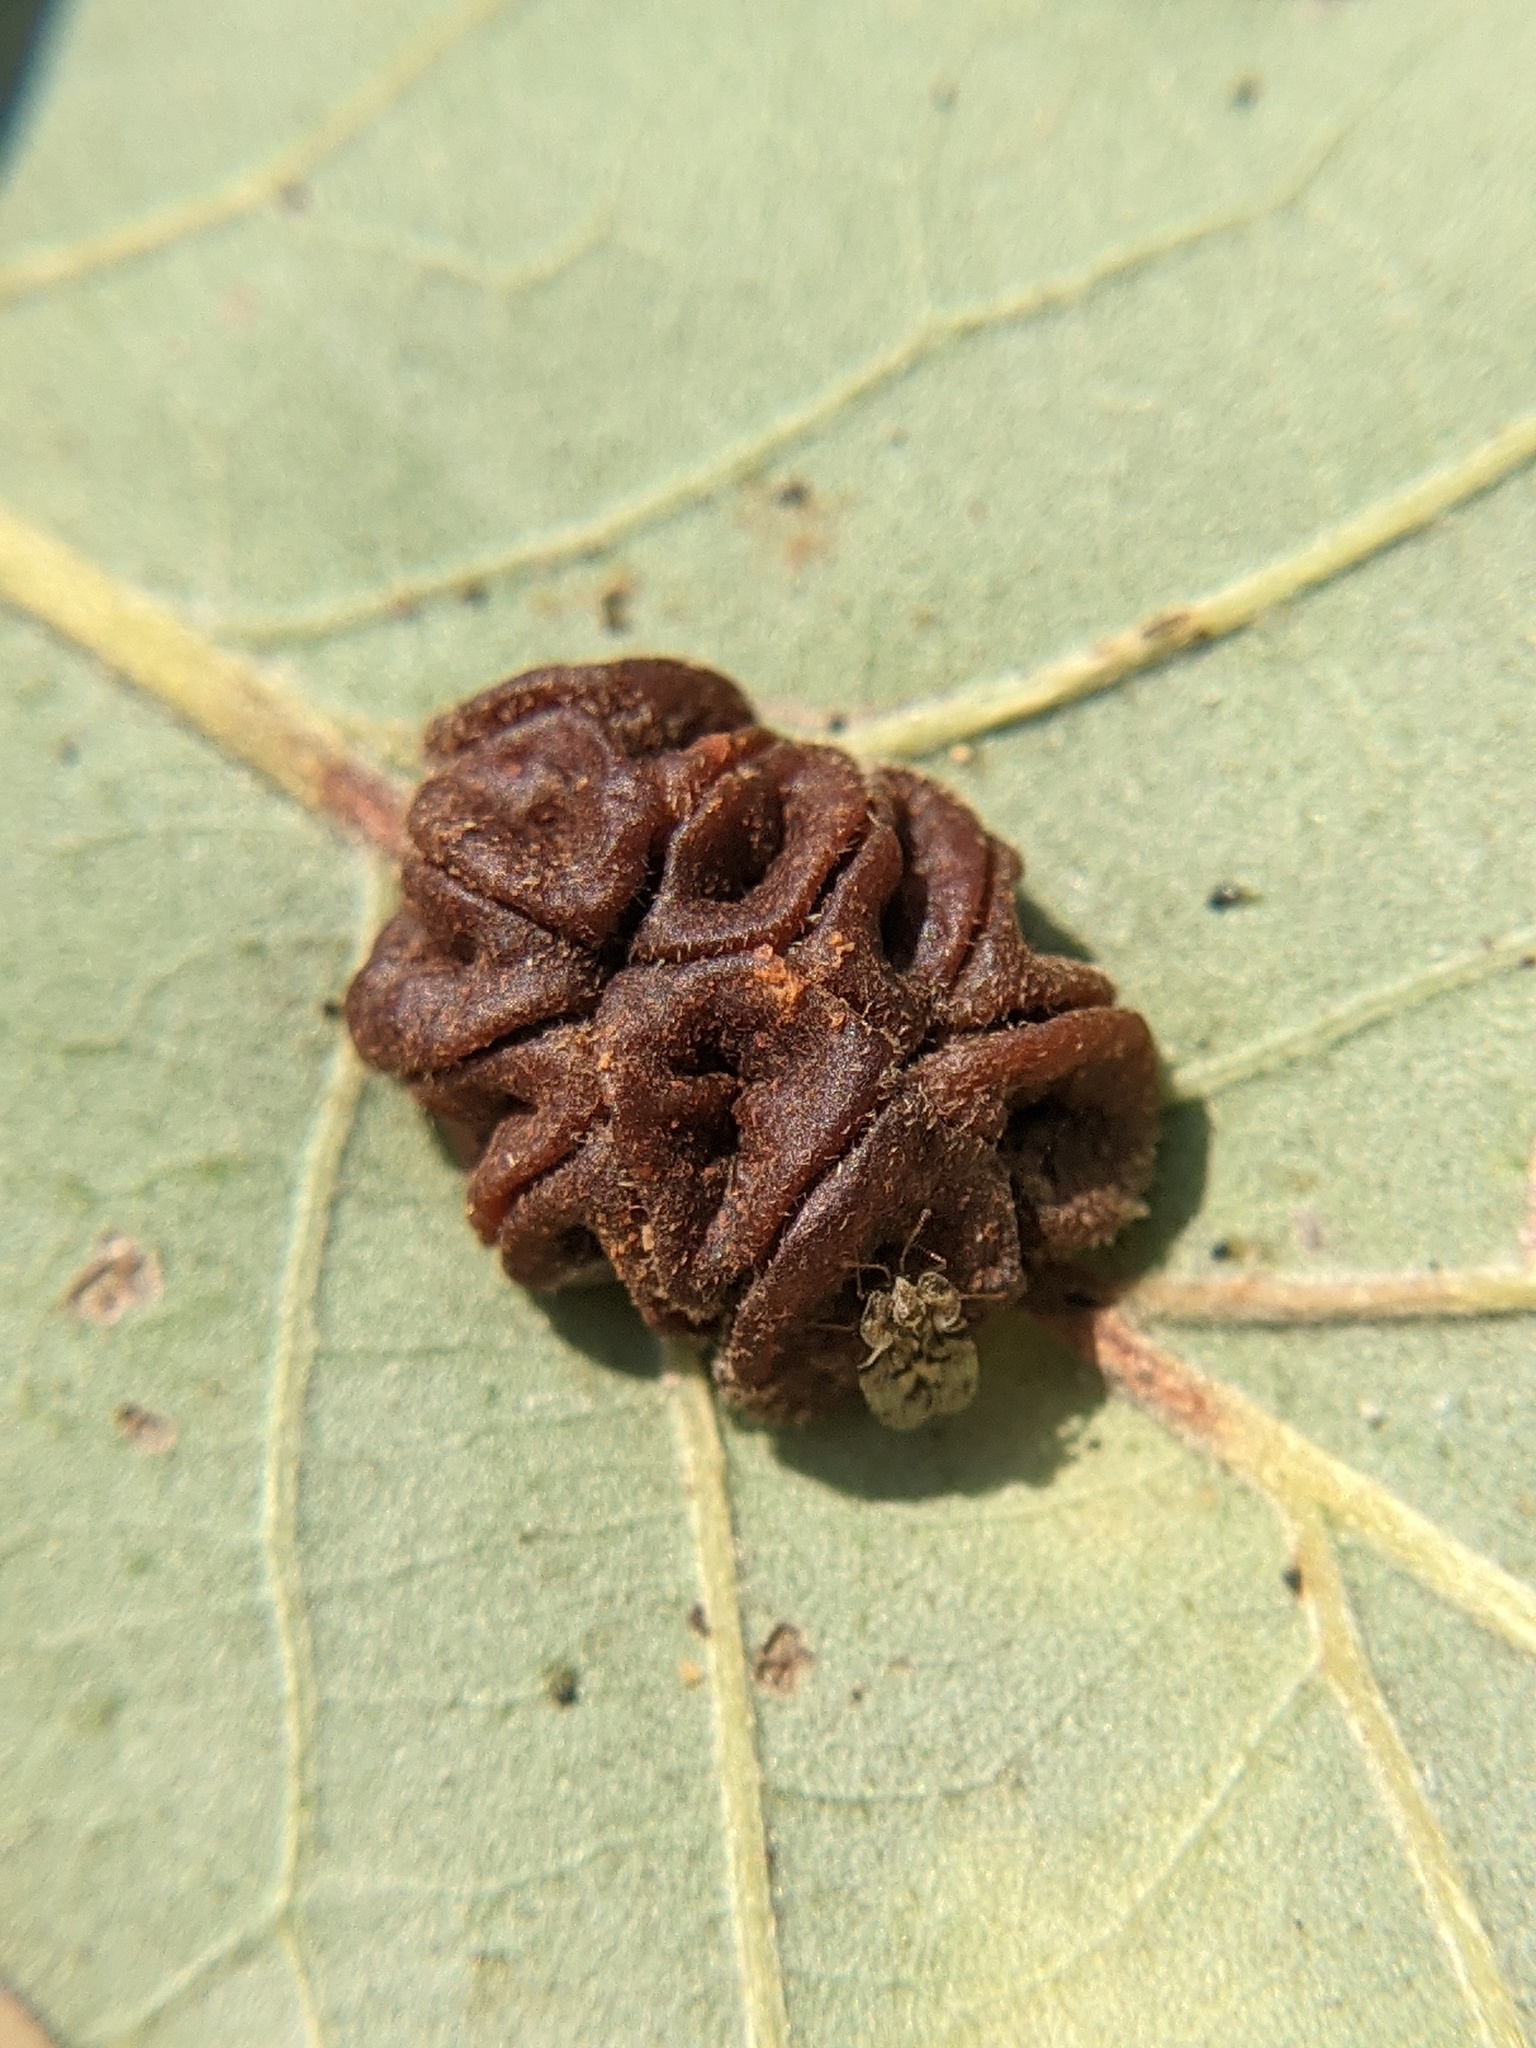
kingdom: Animalia
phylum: Arthropoda
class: Insecta
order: Hymenoptera
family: Cynipidae
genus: Andricus
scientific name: Andricus
